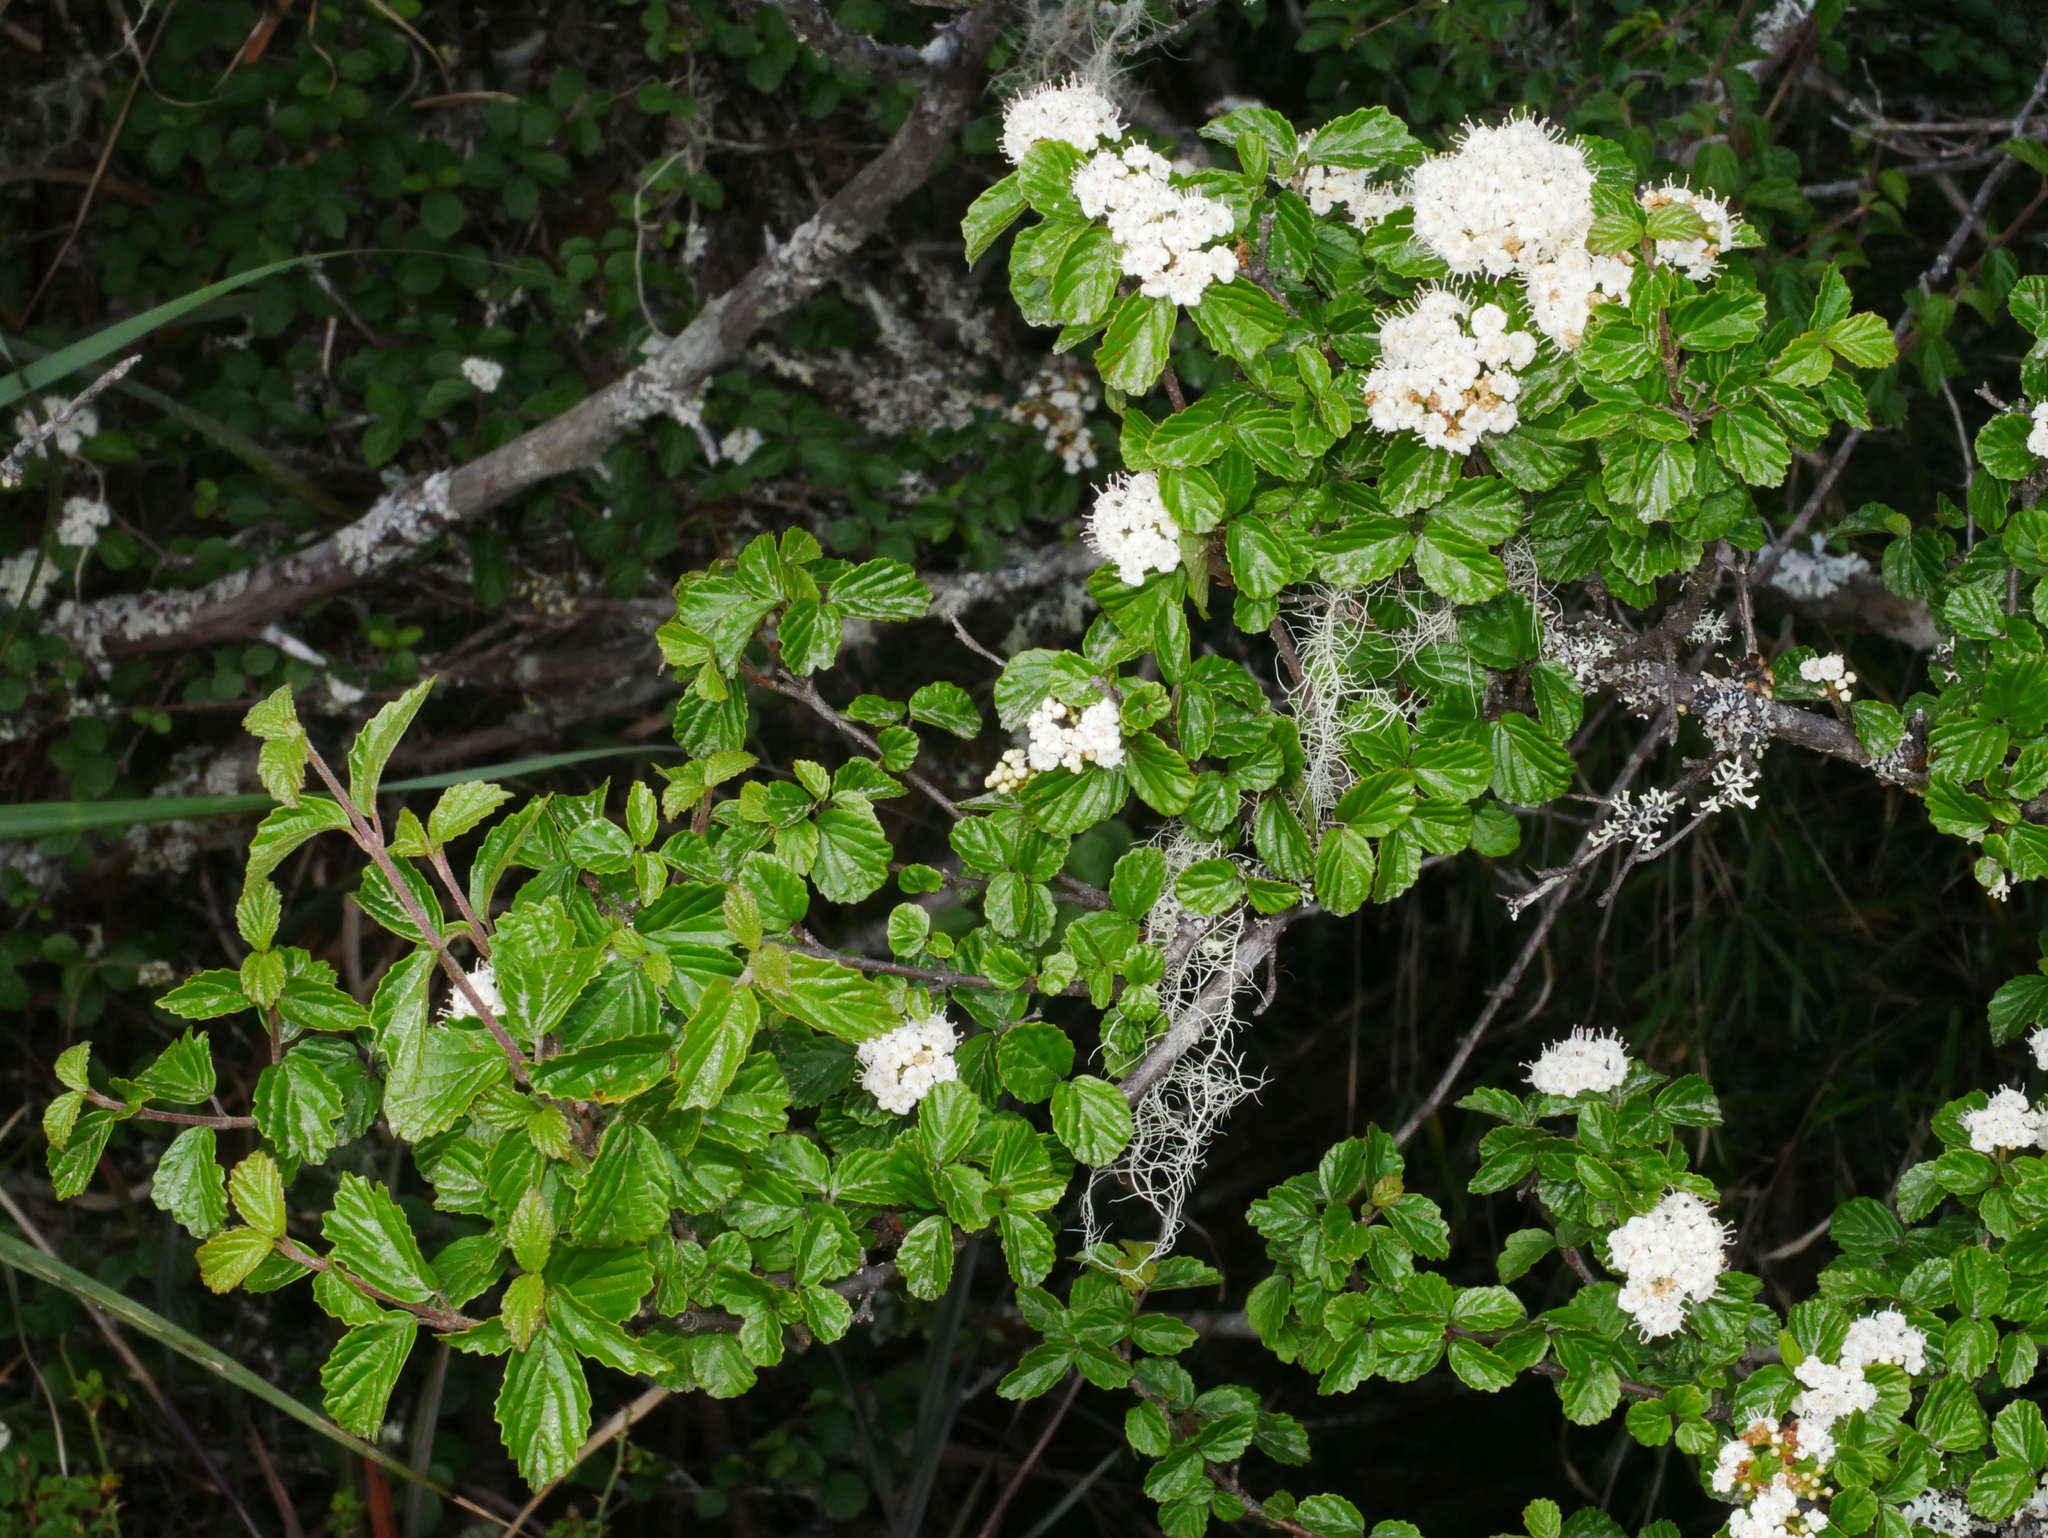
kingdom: Plantae
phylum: Tracheophyta
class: Magnoliopsida
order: Dipsacales
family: Viburnaceae
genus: Viburnum
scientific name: Viburnum parvifolium
